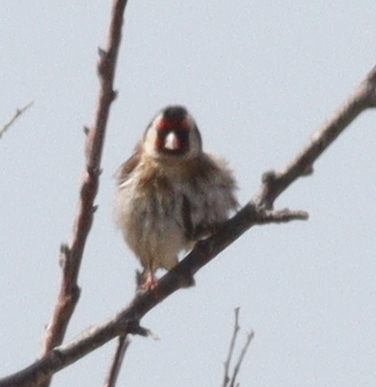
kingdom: Animalia
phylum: Chordata
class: Aves
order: Passeriformes
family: Fringillidae
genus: Carduelis
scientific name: Carduelis carduelis
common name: European goldfinch
